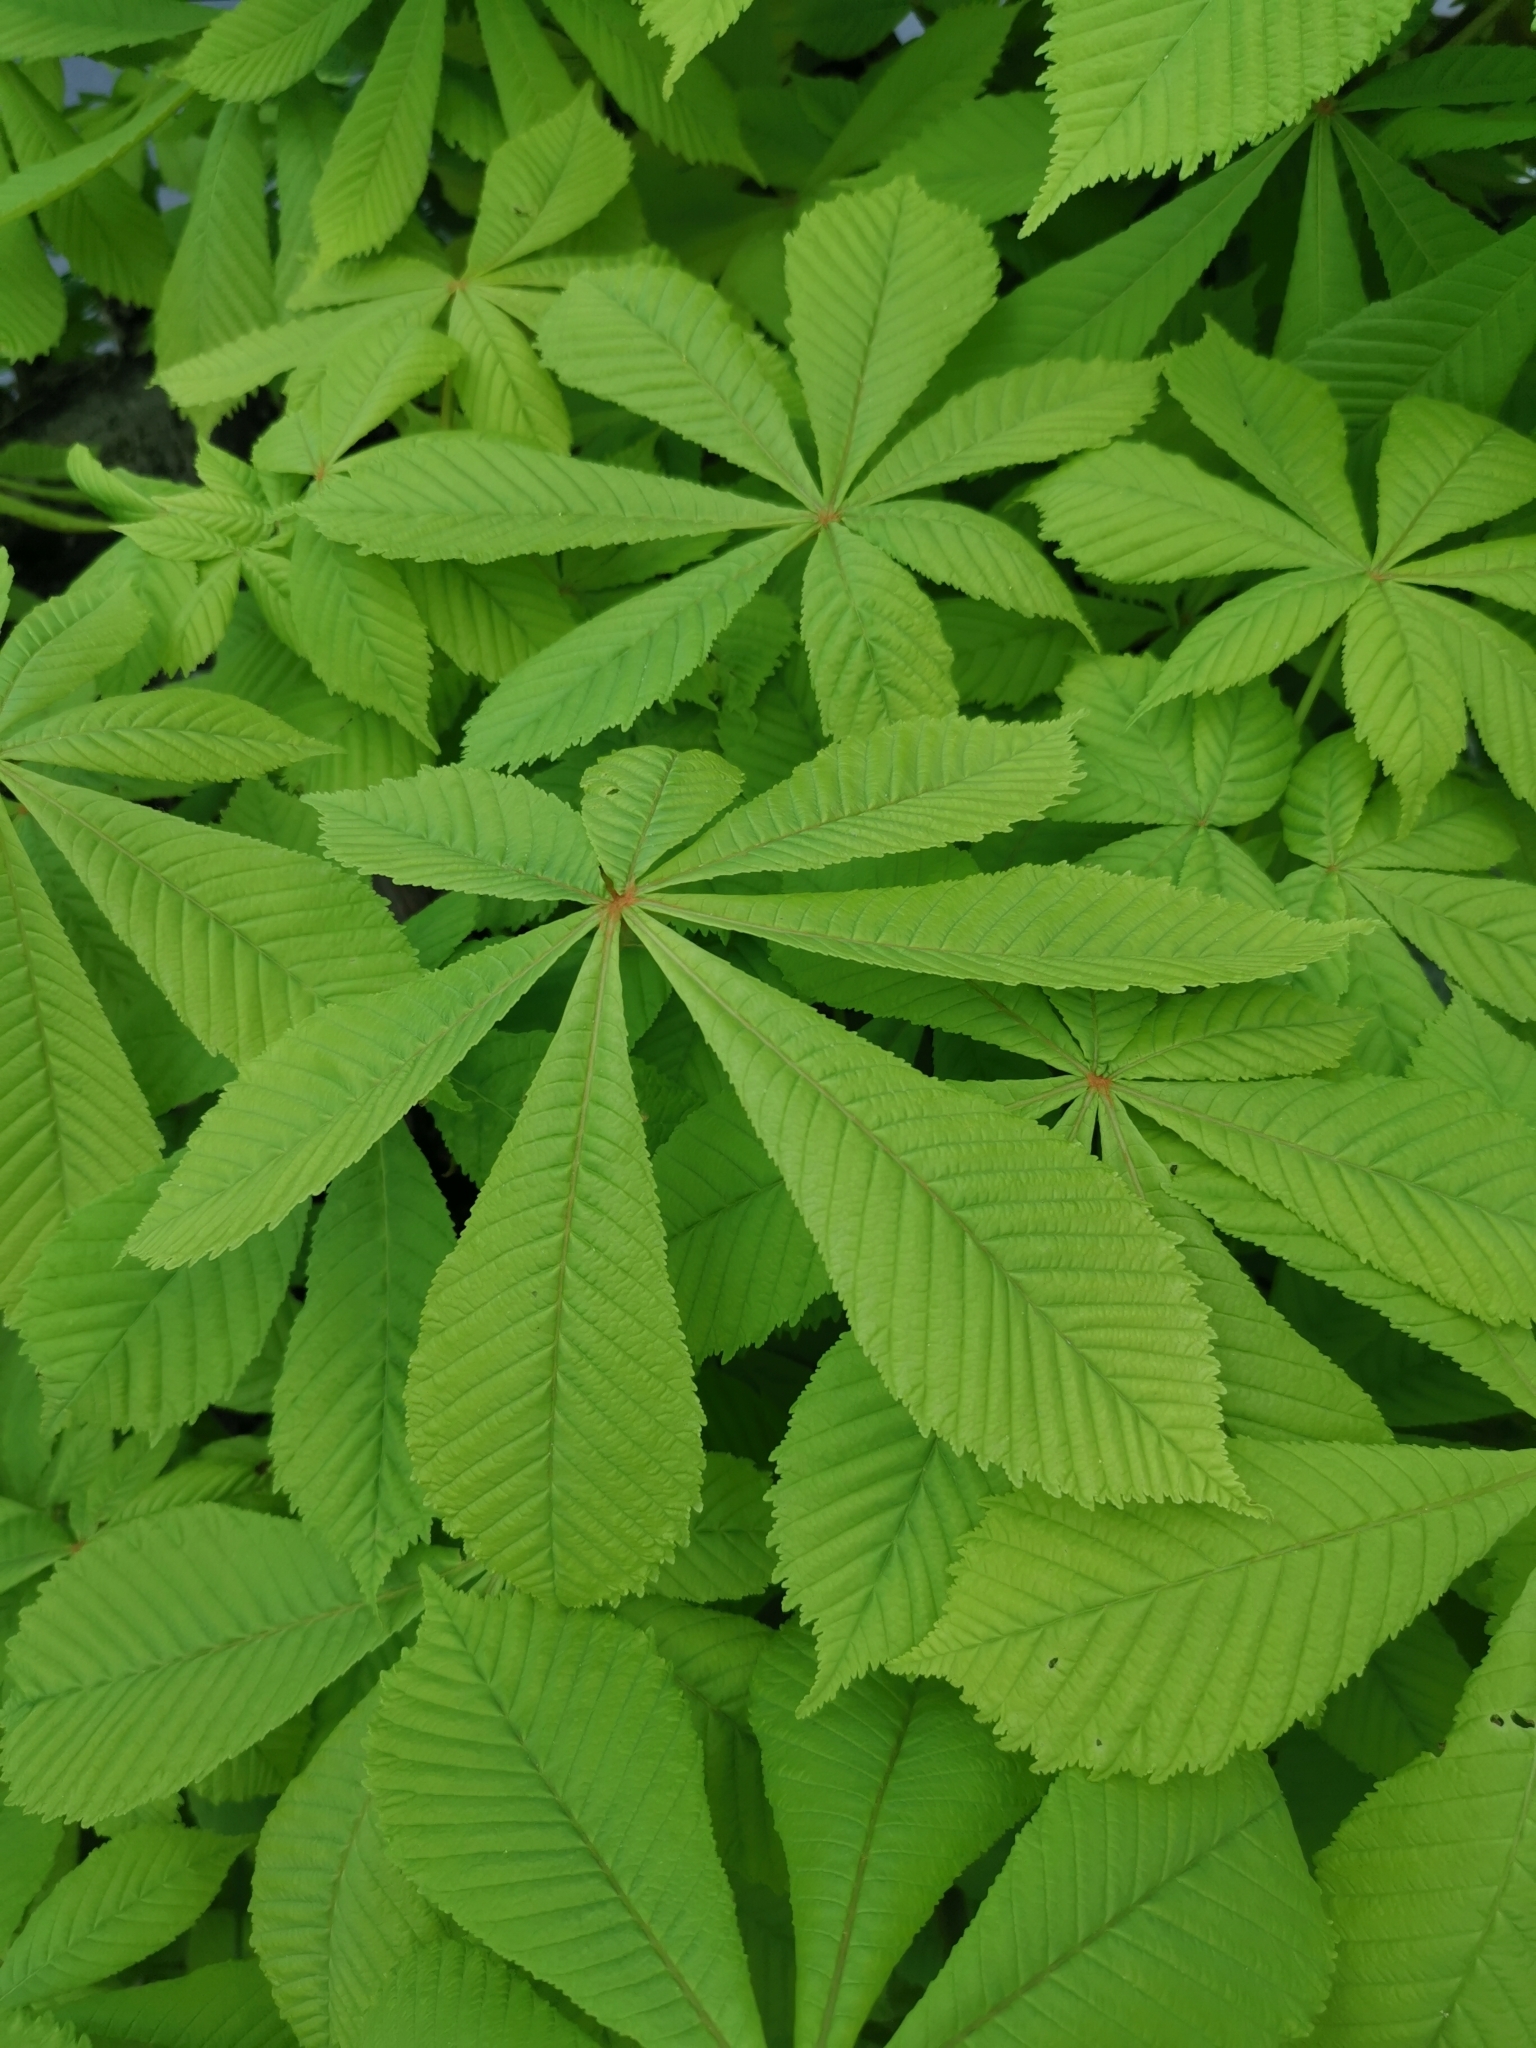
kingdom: Plantae
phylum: Tracheophyta
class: Magnoliopsida
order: Sapindales
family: Sapindaceae
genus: Aesculus
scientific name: Aesculus hippocastanum
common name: Horse-chestnut
